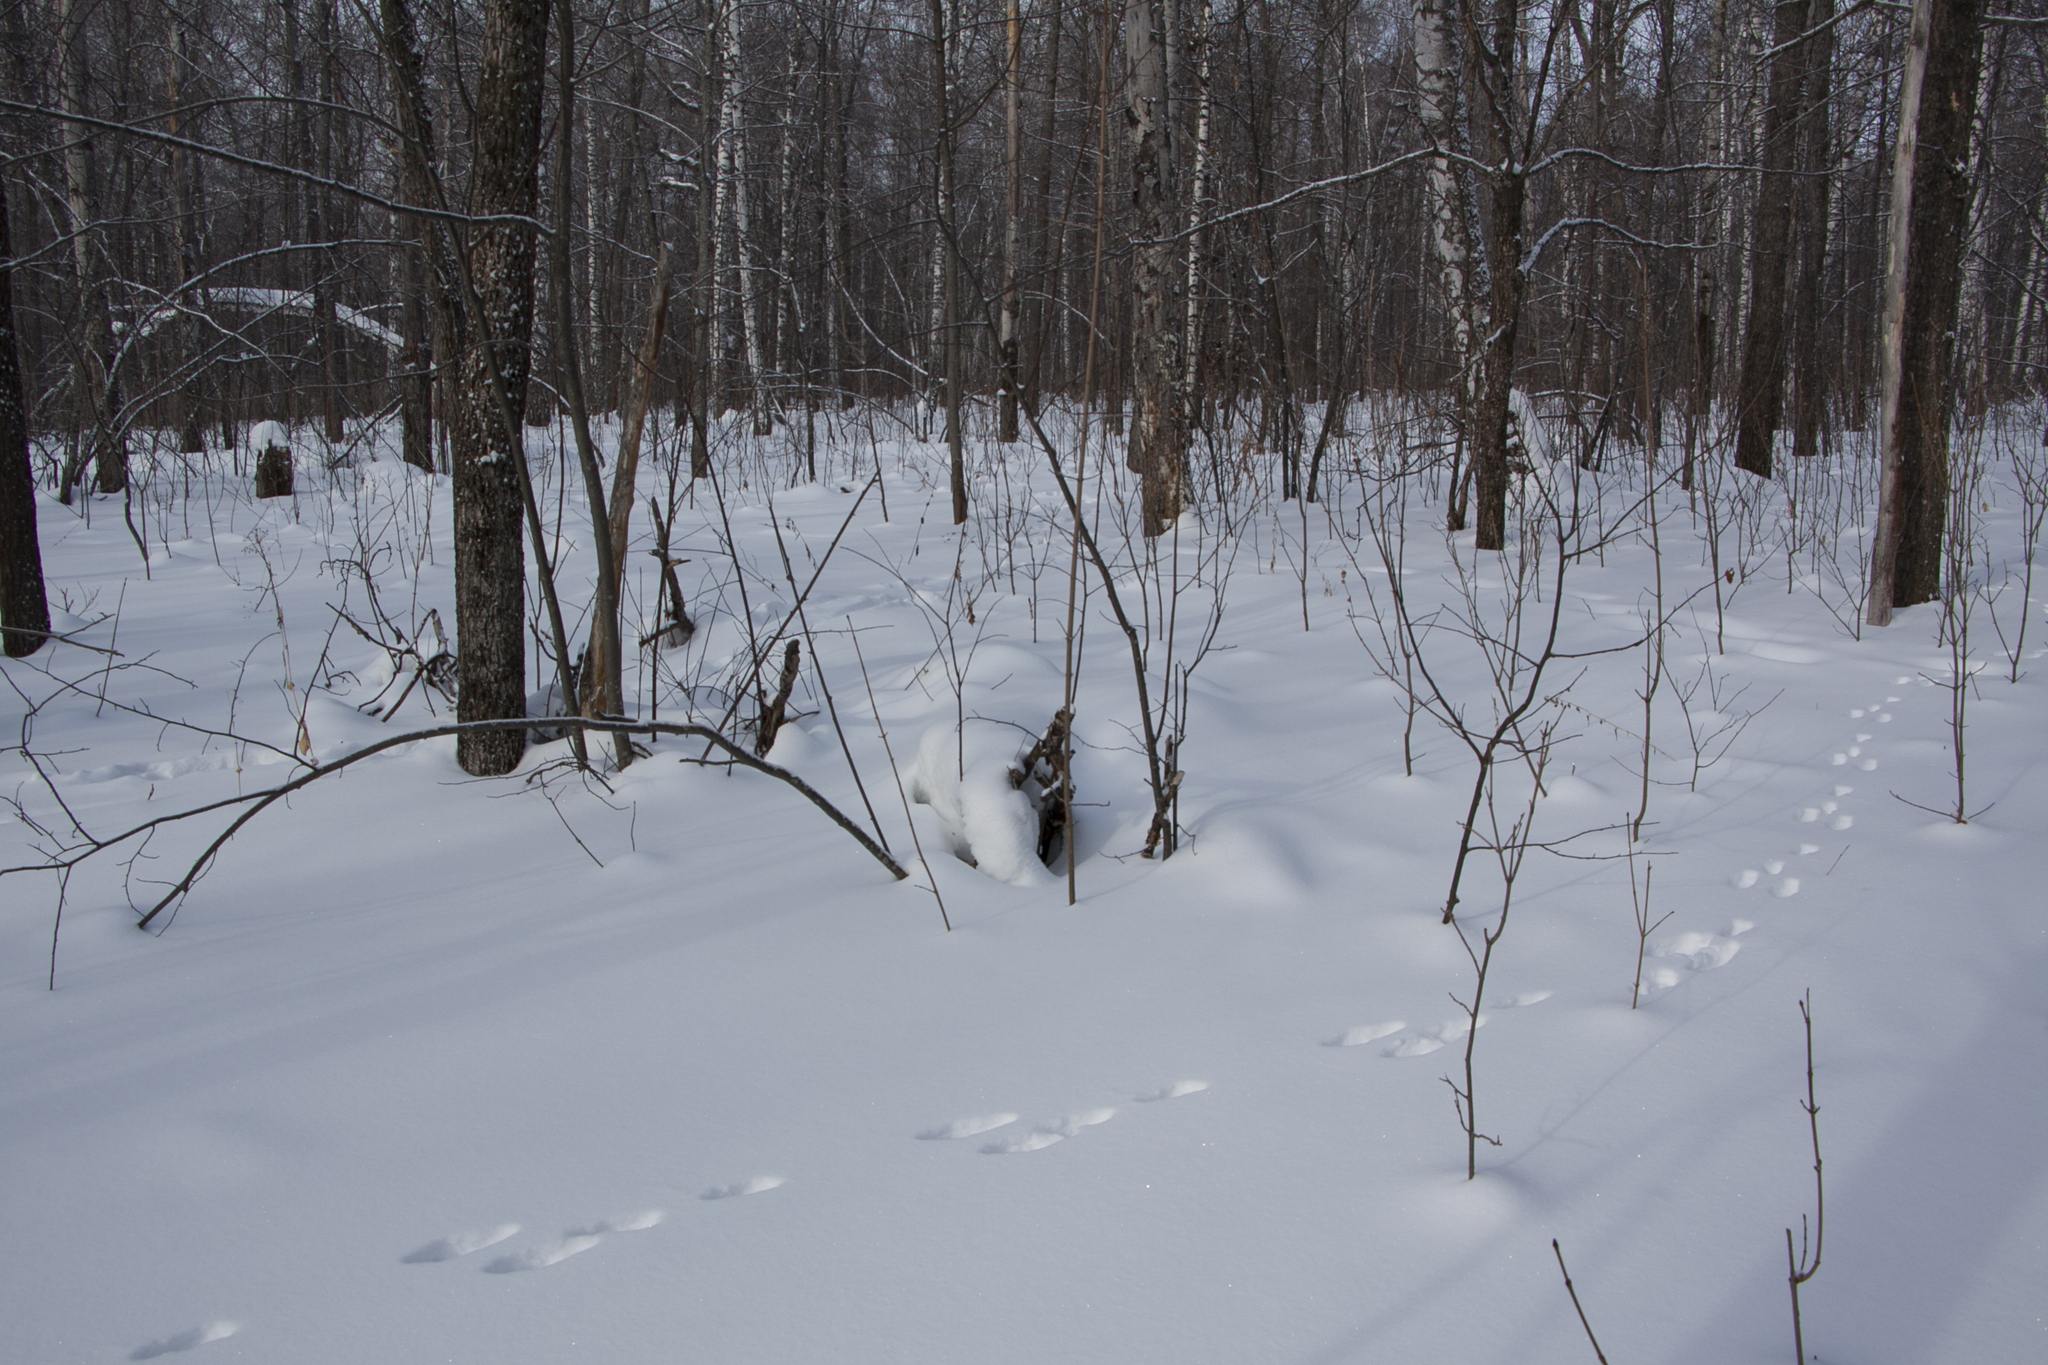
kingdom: Animalia
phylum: Chordata
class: Mammalia
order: Lagomorpha
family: Leporidae
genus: Lepus
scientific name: Lepus timidus
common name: Mountain hare
